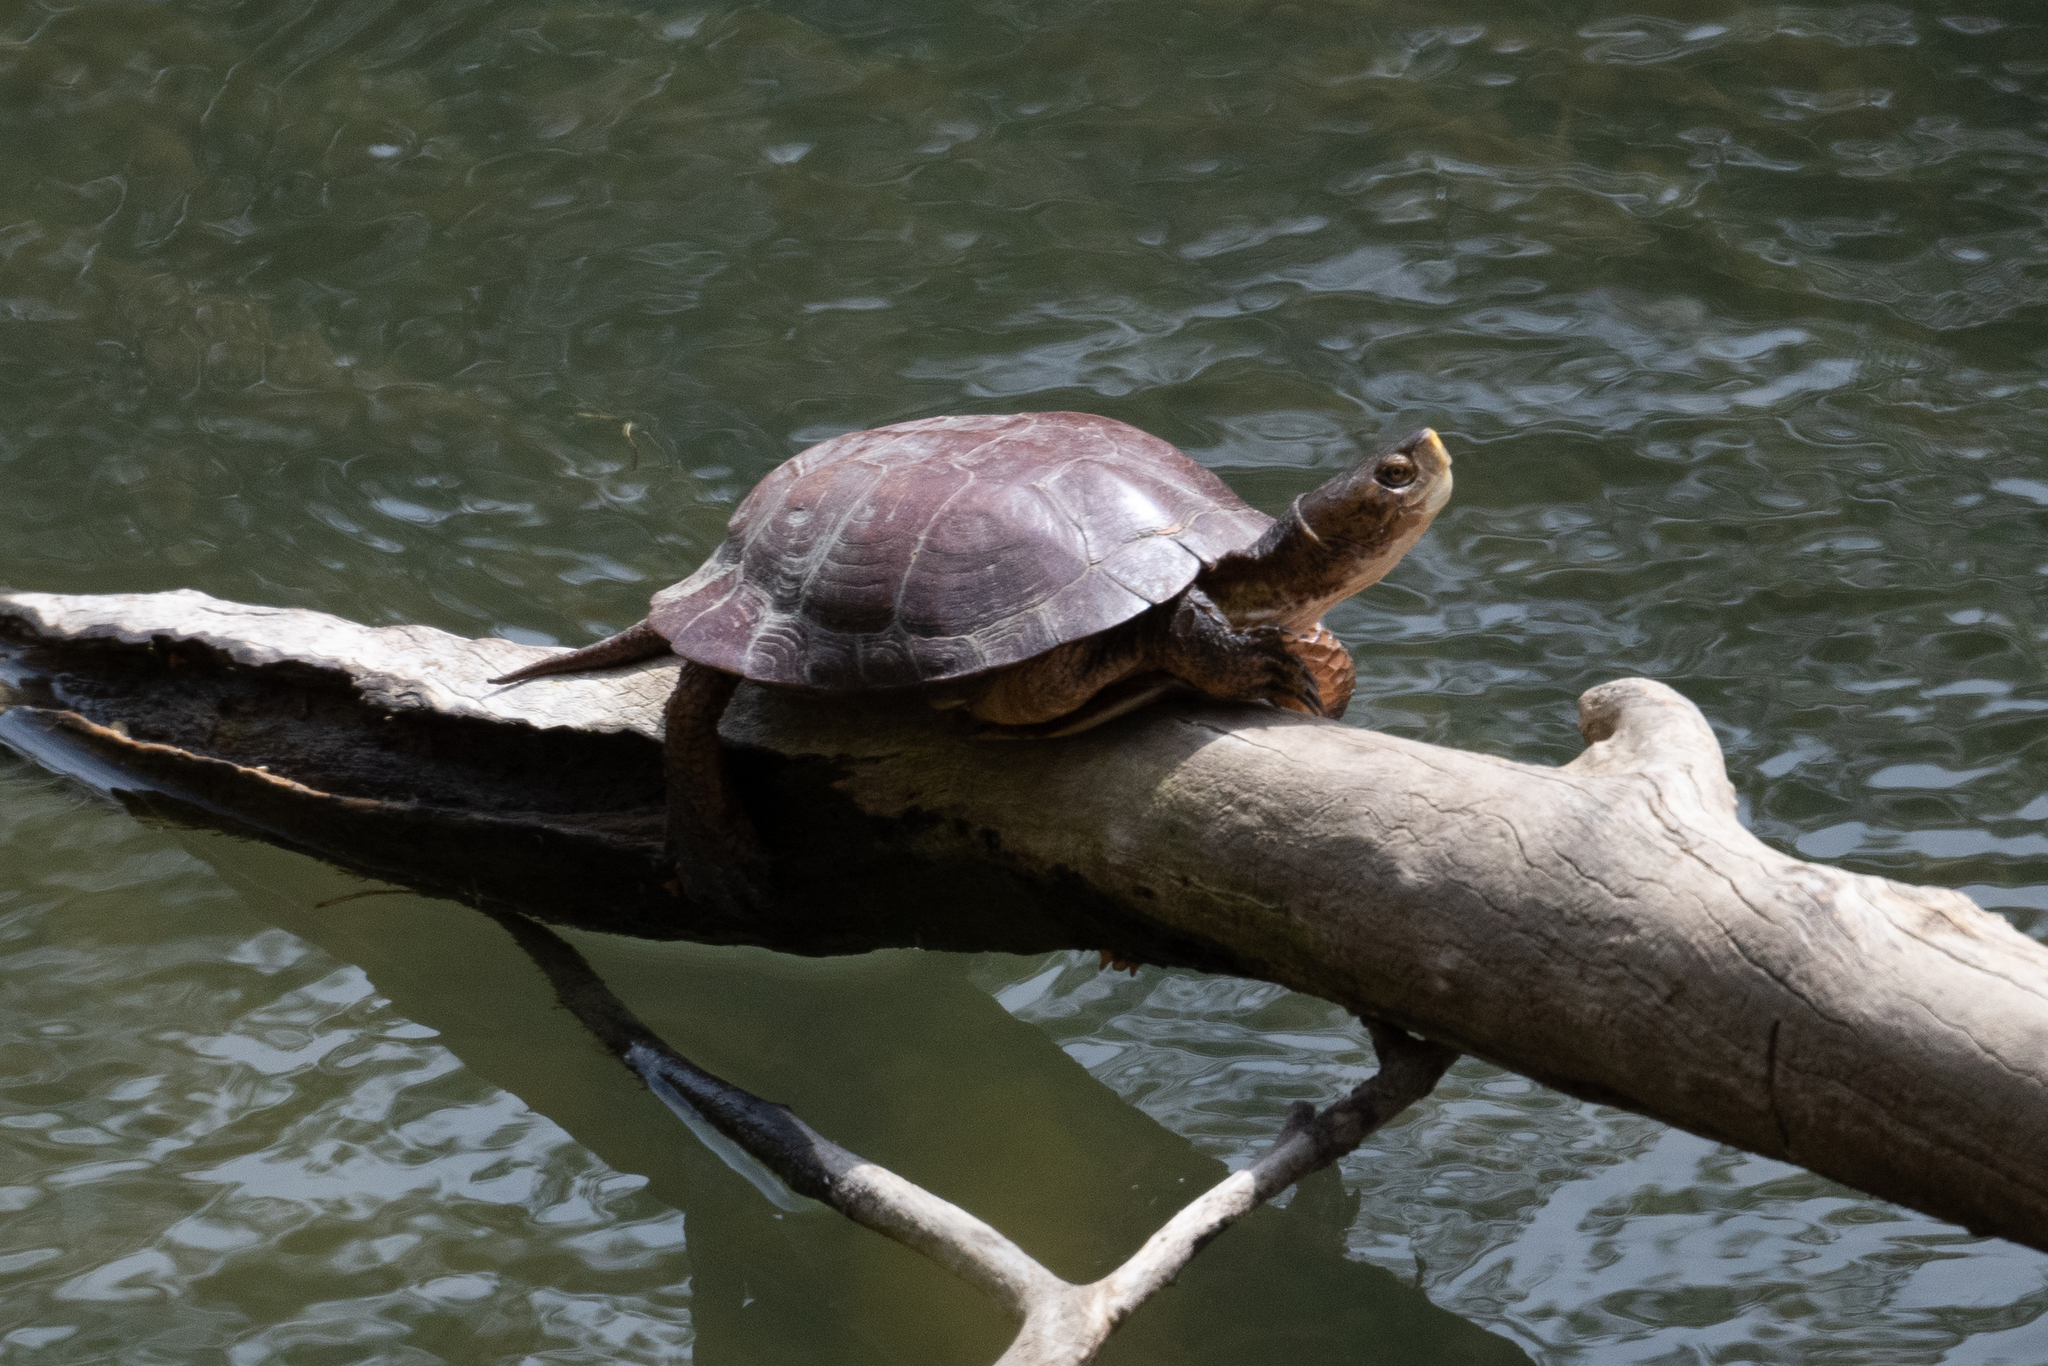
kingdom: Animalia
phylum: Chordata
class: Testudines
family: Emydidae
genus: Actinemys
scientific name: Actinemys marmorata
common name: Western pond turtle
